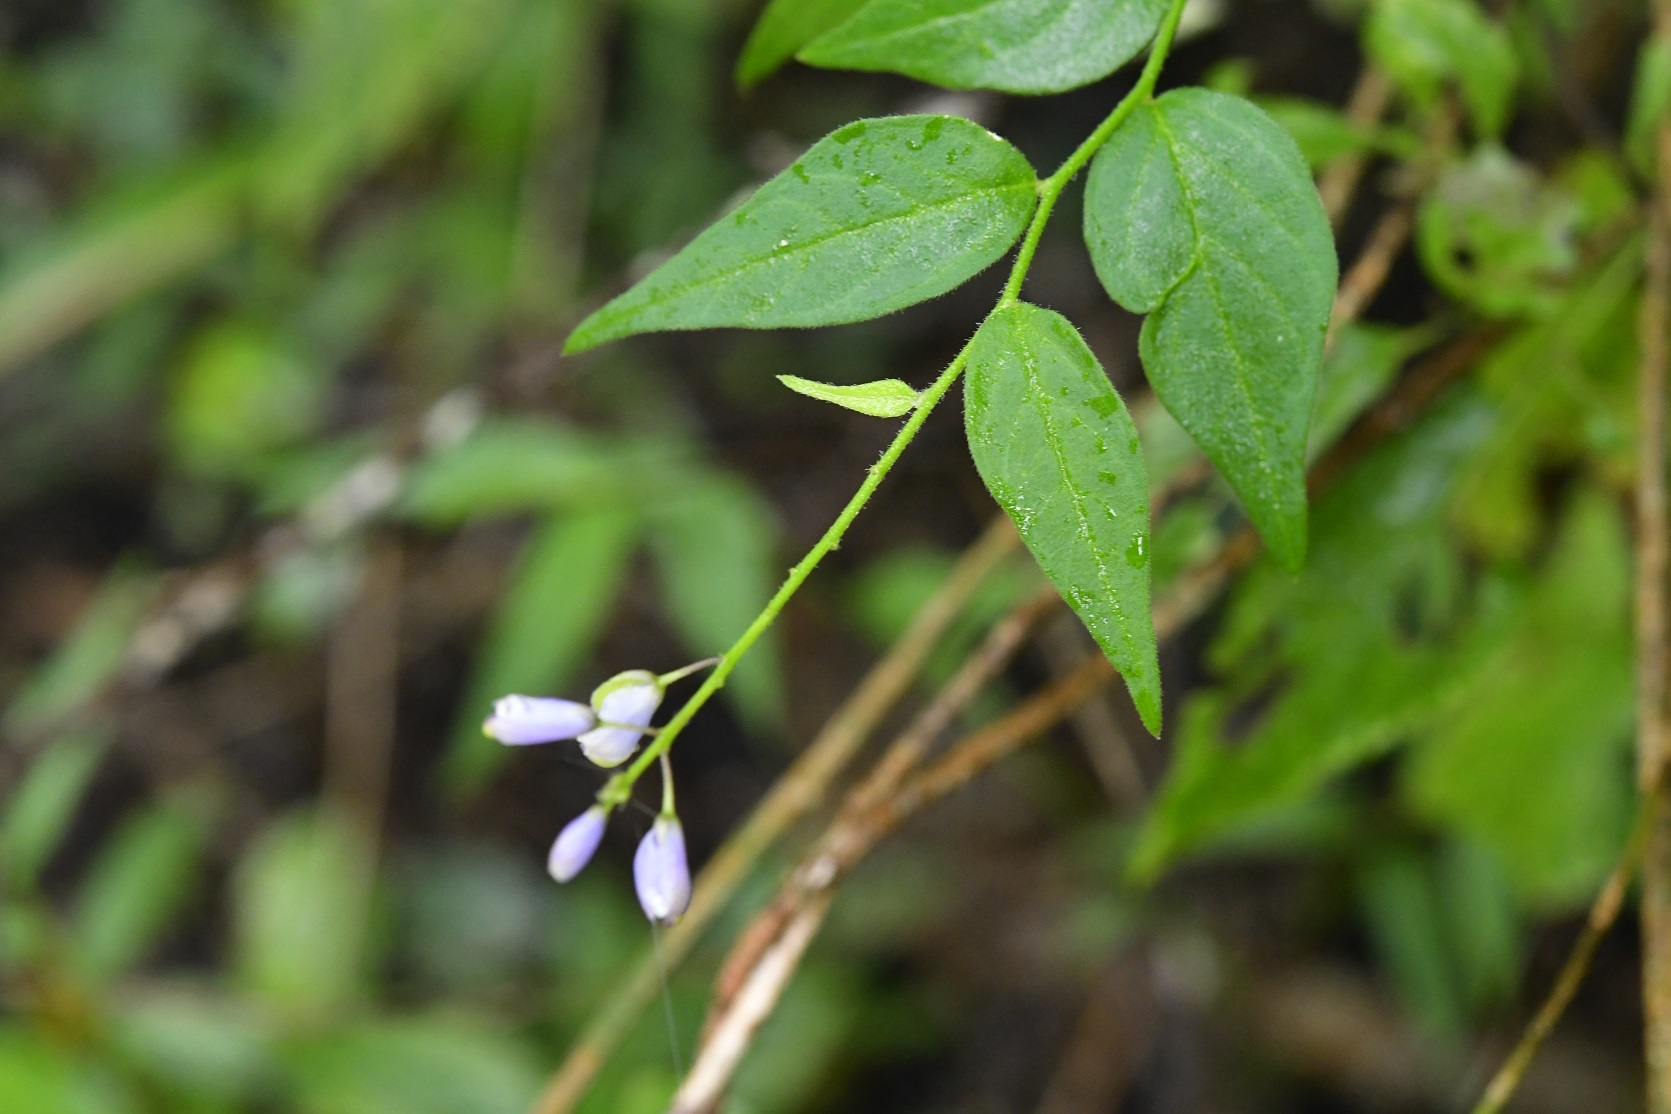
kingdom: Plantae
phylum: Tracheophyta
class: Magnoliopsida
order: Fabales
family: Polygalaceae
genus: Hebecarpa
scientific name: Hebecarpa costaricensis
